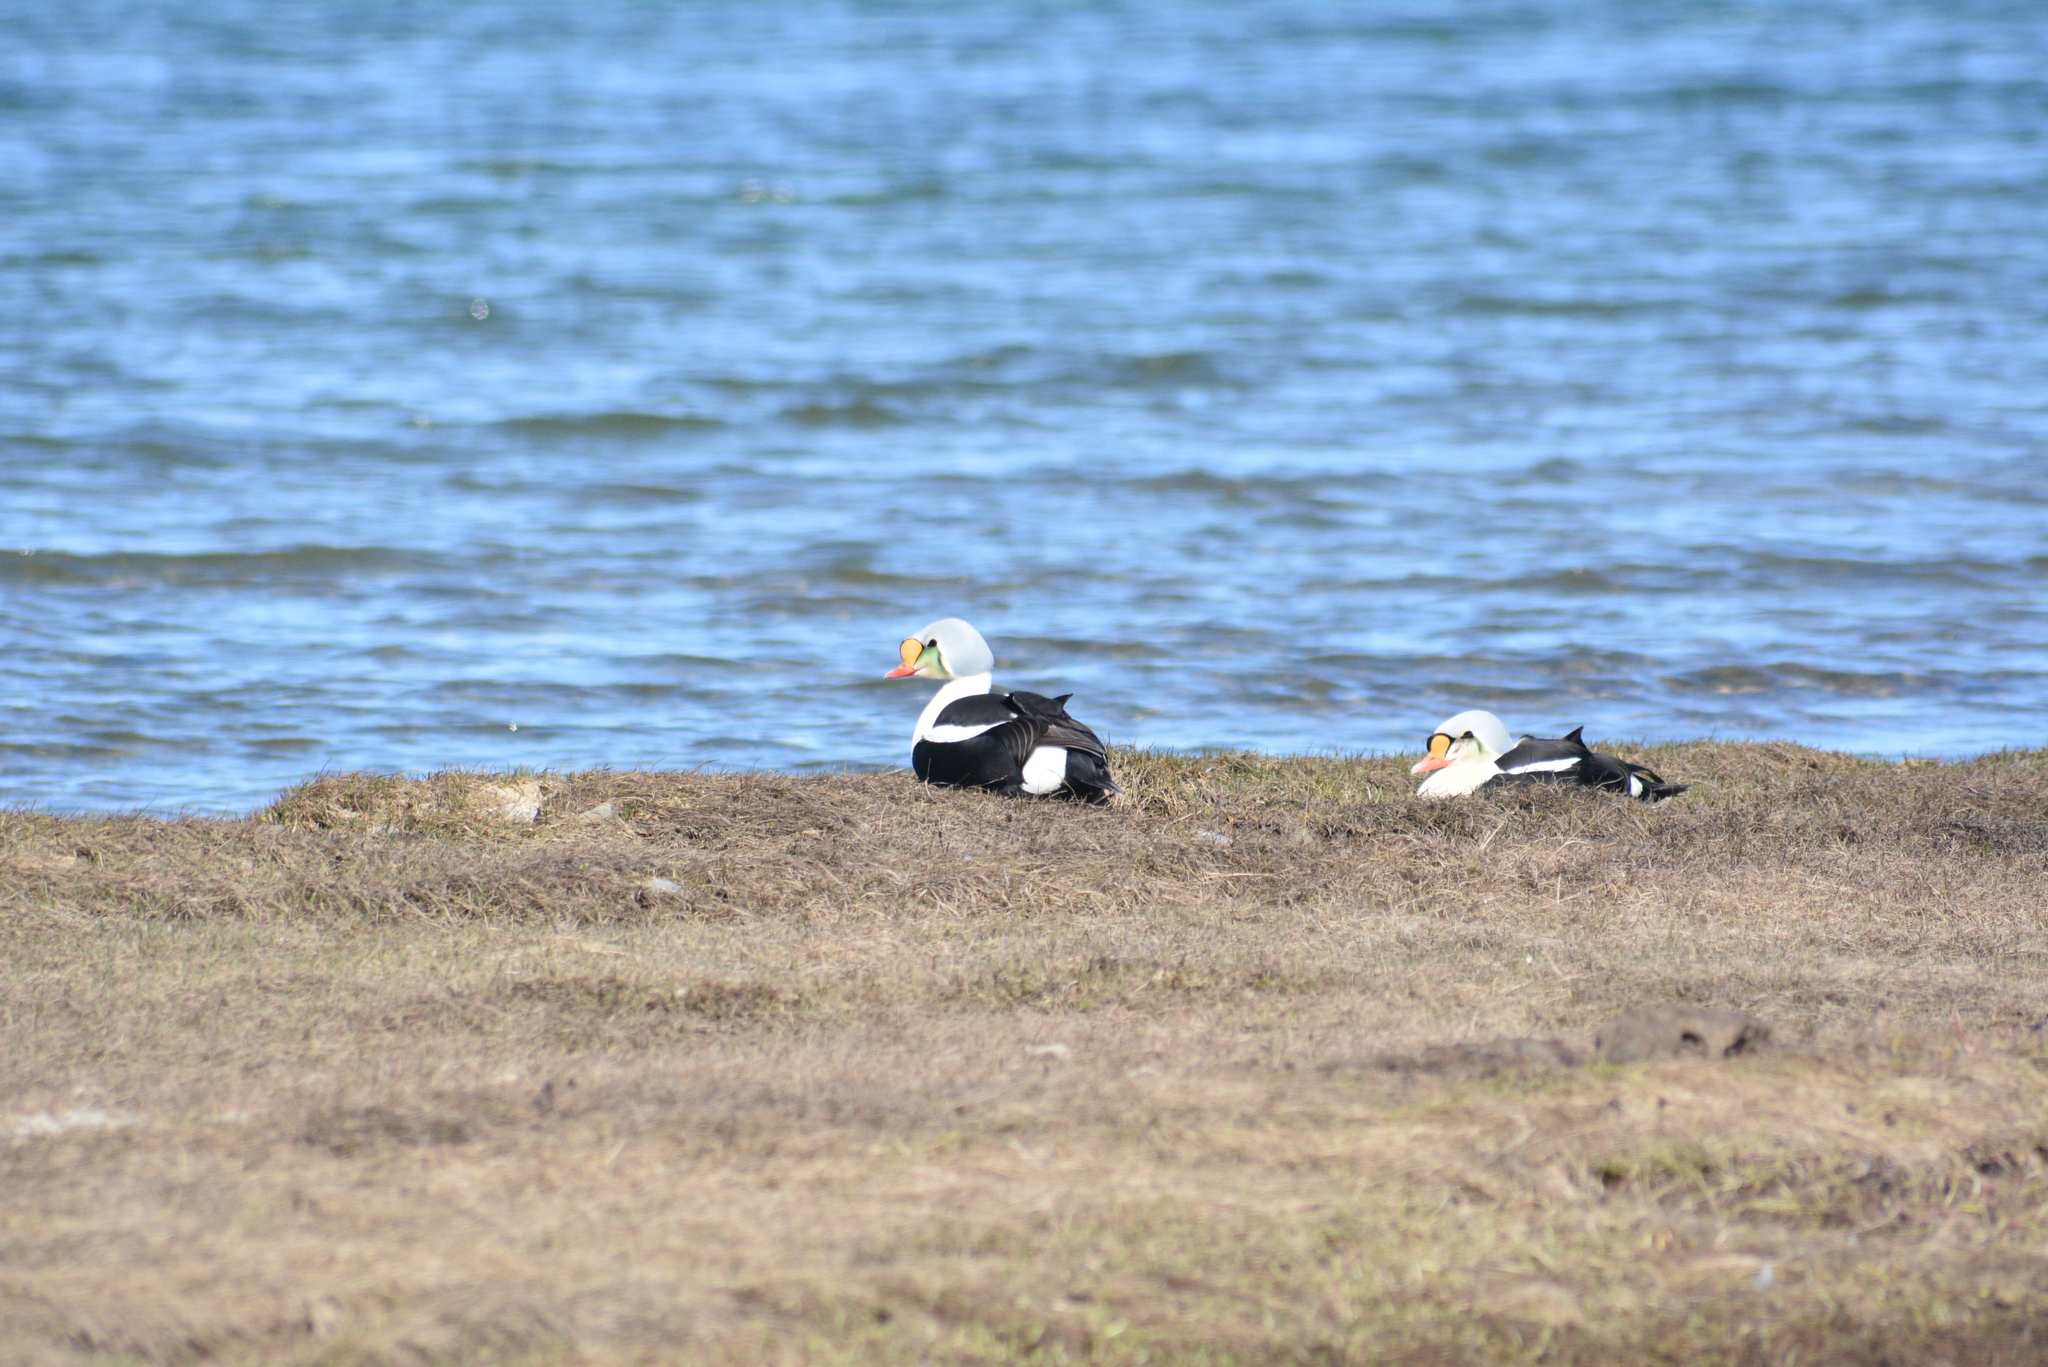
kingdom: Animalia
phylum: Chordata
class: Aves
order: Anseriformes
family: Anatidae
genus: Somateria
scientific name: Somateria spectabilis
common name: King eider
